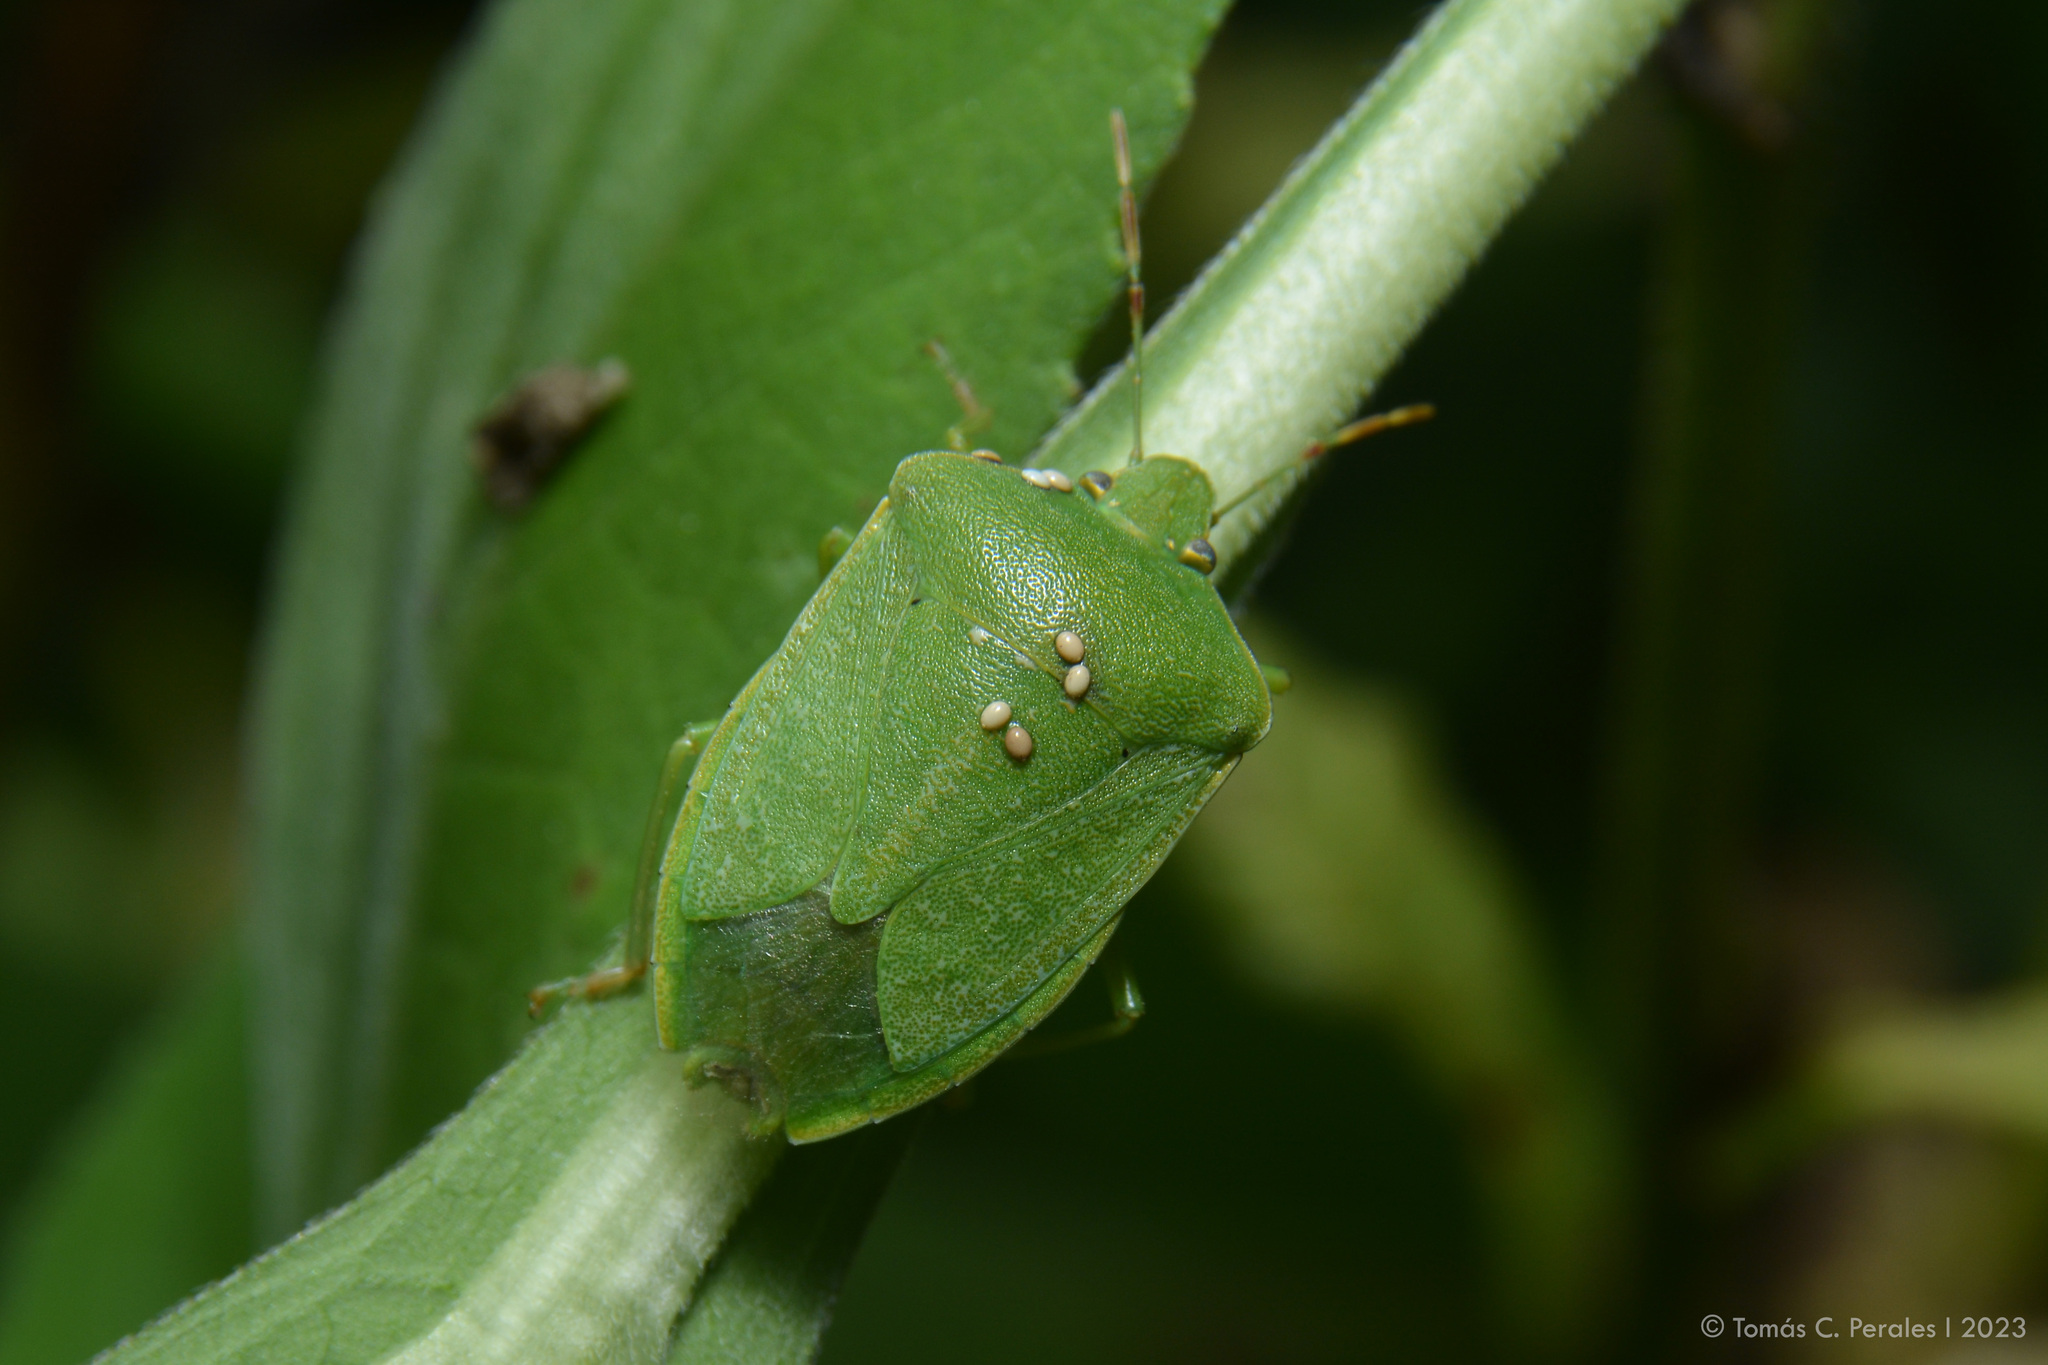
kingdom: Animalia
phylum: Arthropoda
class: Insecta
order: Hemiptera
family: Pentatomidae
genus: Nezara
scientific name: Nezara viridula
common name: Southern green stink bug
